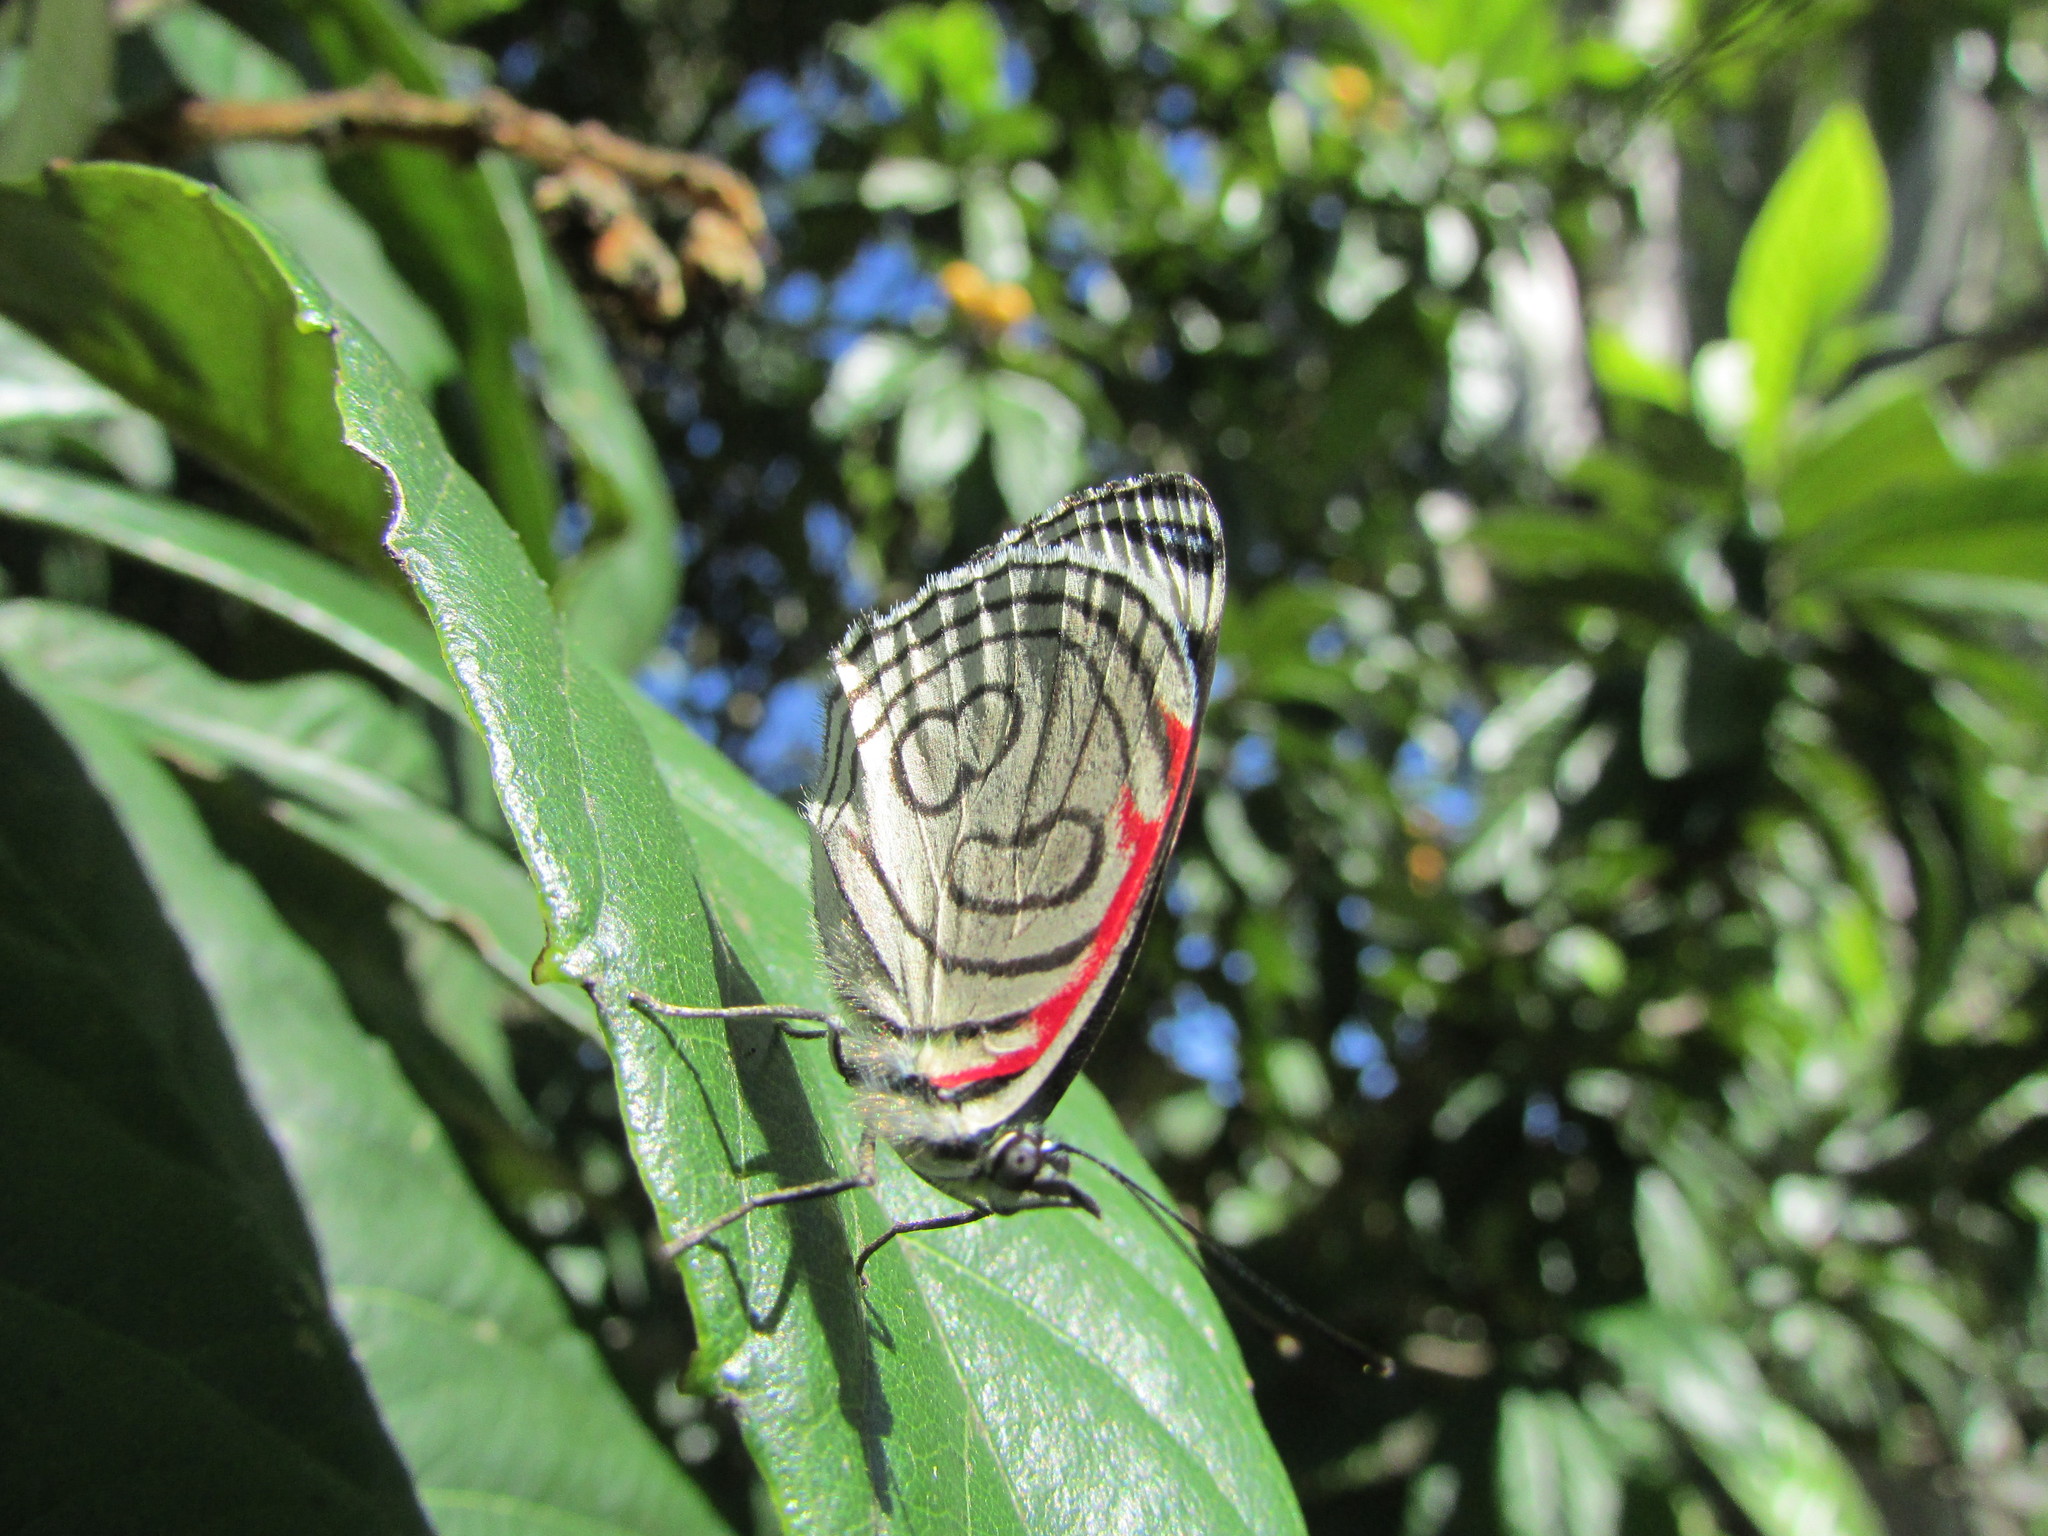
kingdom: Animalia
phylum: Arthropoda
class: Insecta
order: Lepidoptera
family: Nymphalidae
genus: Diaethria
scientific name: Diaethria candrena
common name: Number eighty
